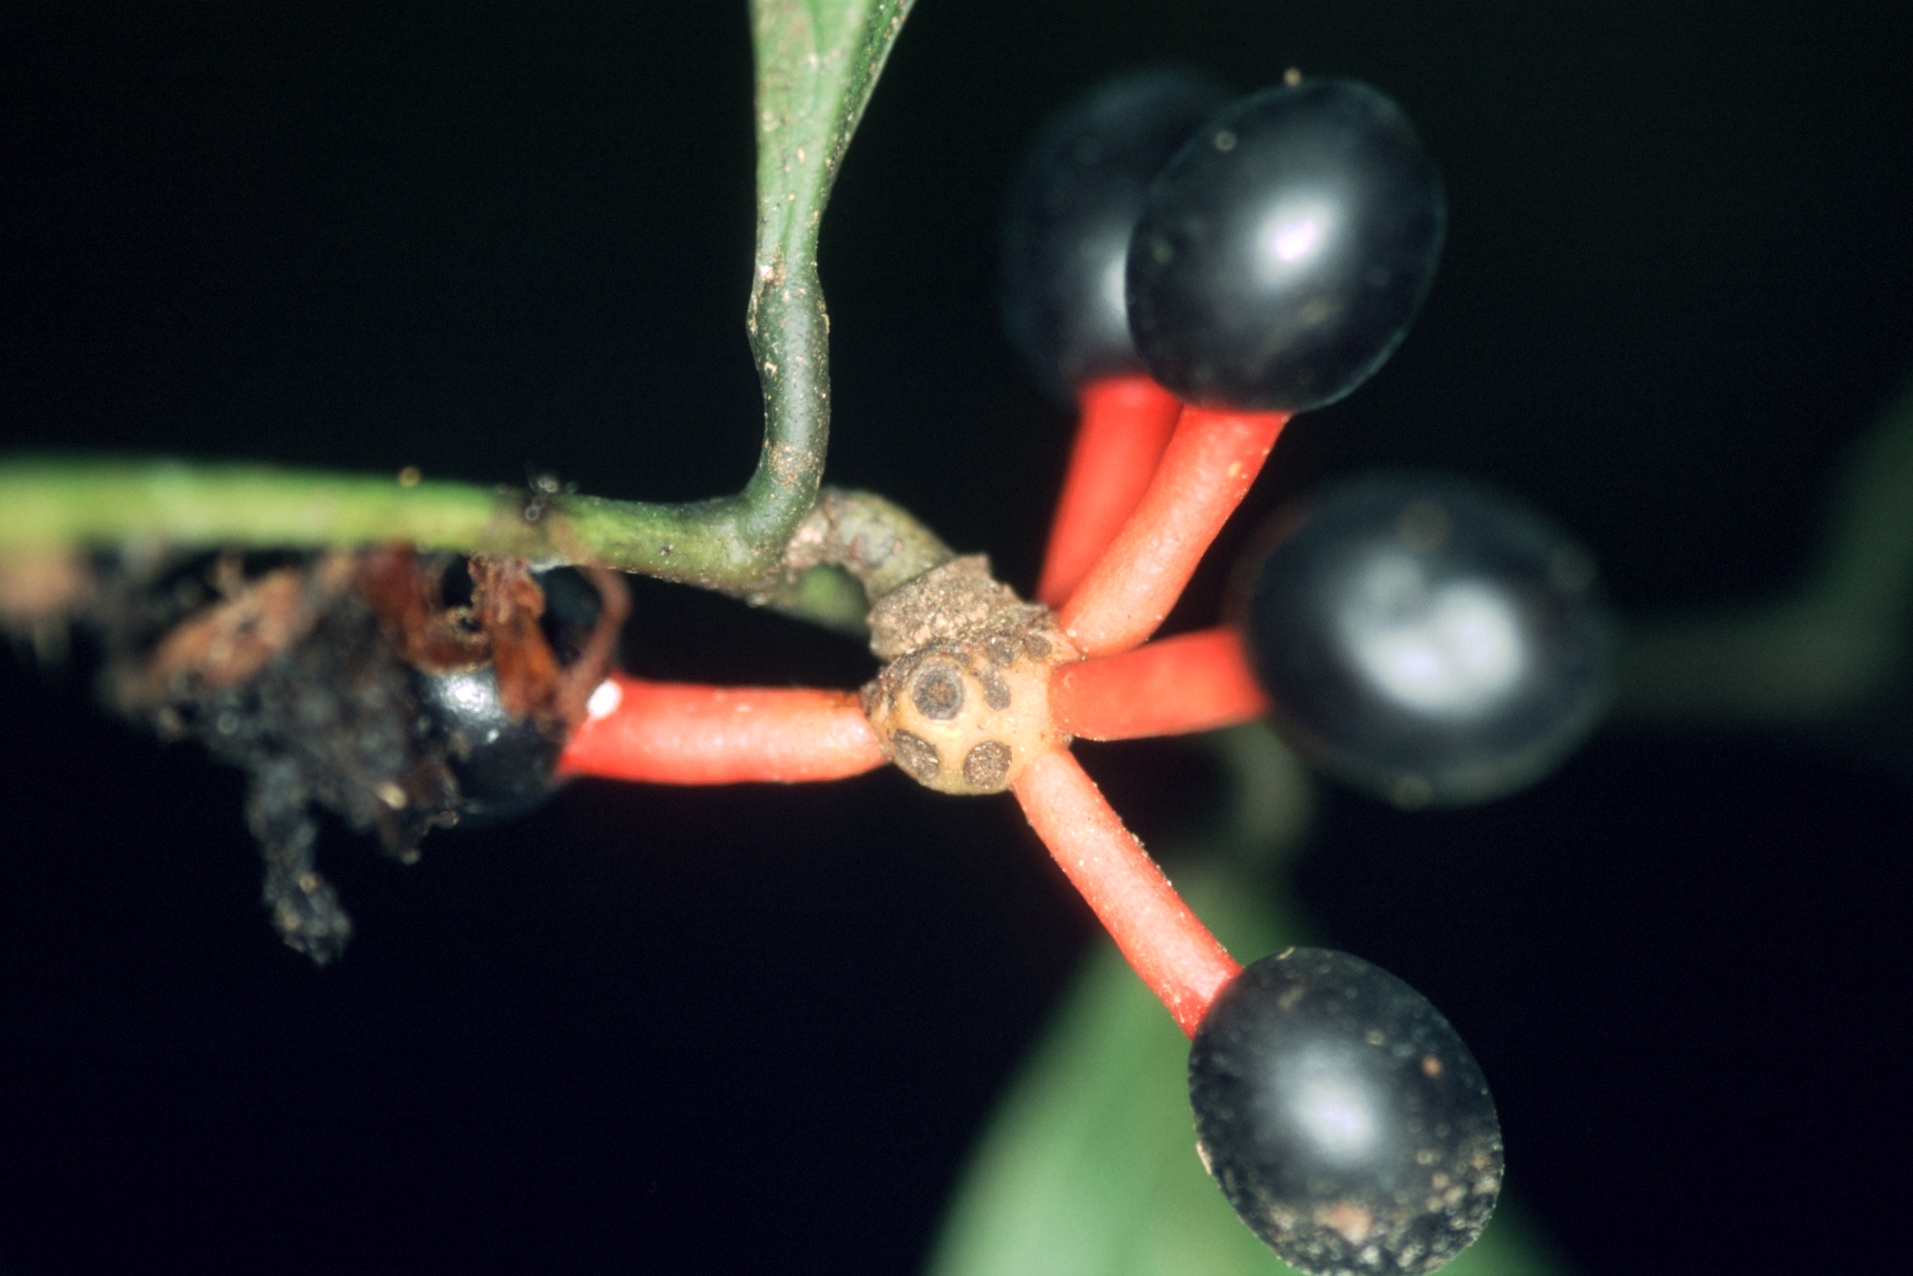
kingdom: Plantae
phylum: Tracheophyta
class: Magnoliopsida
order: Magnoliales
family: Annonaceae
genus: Cremastosperma
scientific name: Cremastosperma yamayakatense
